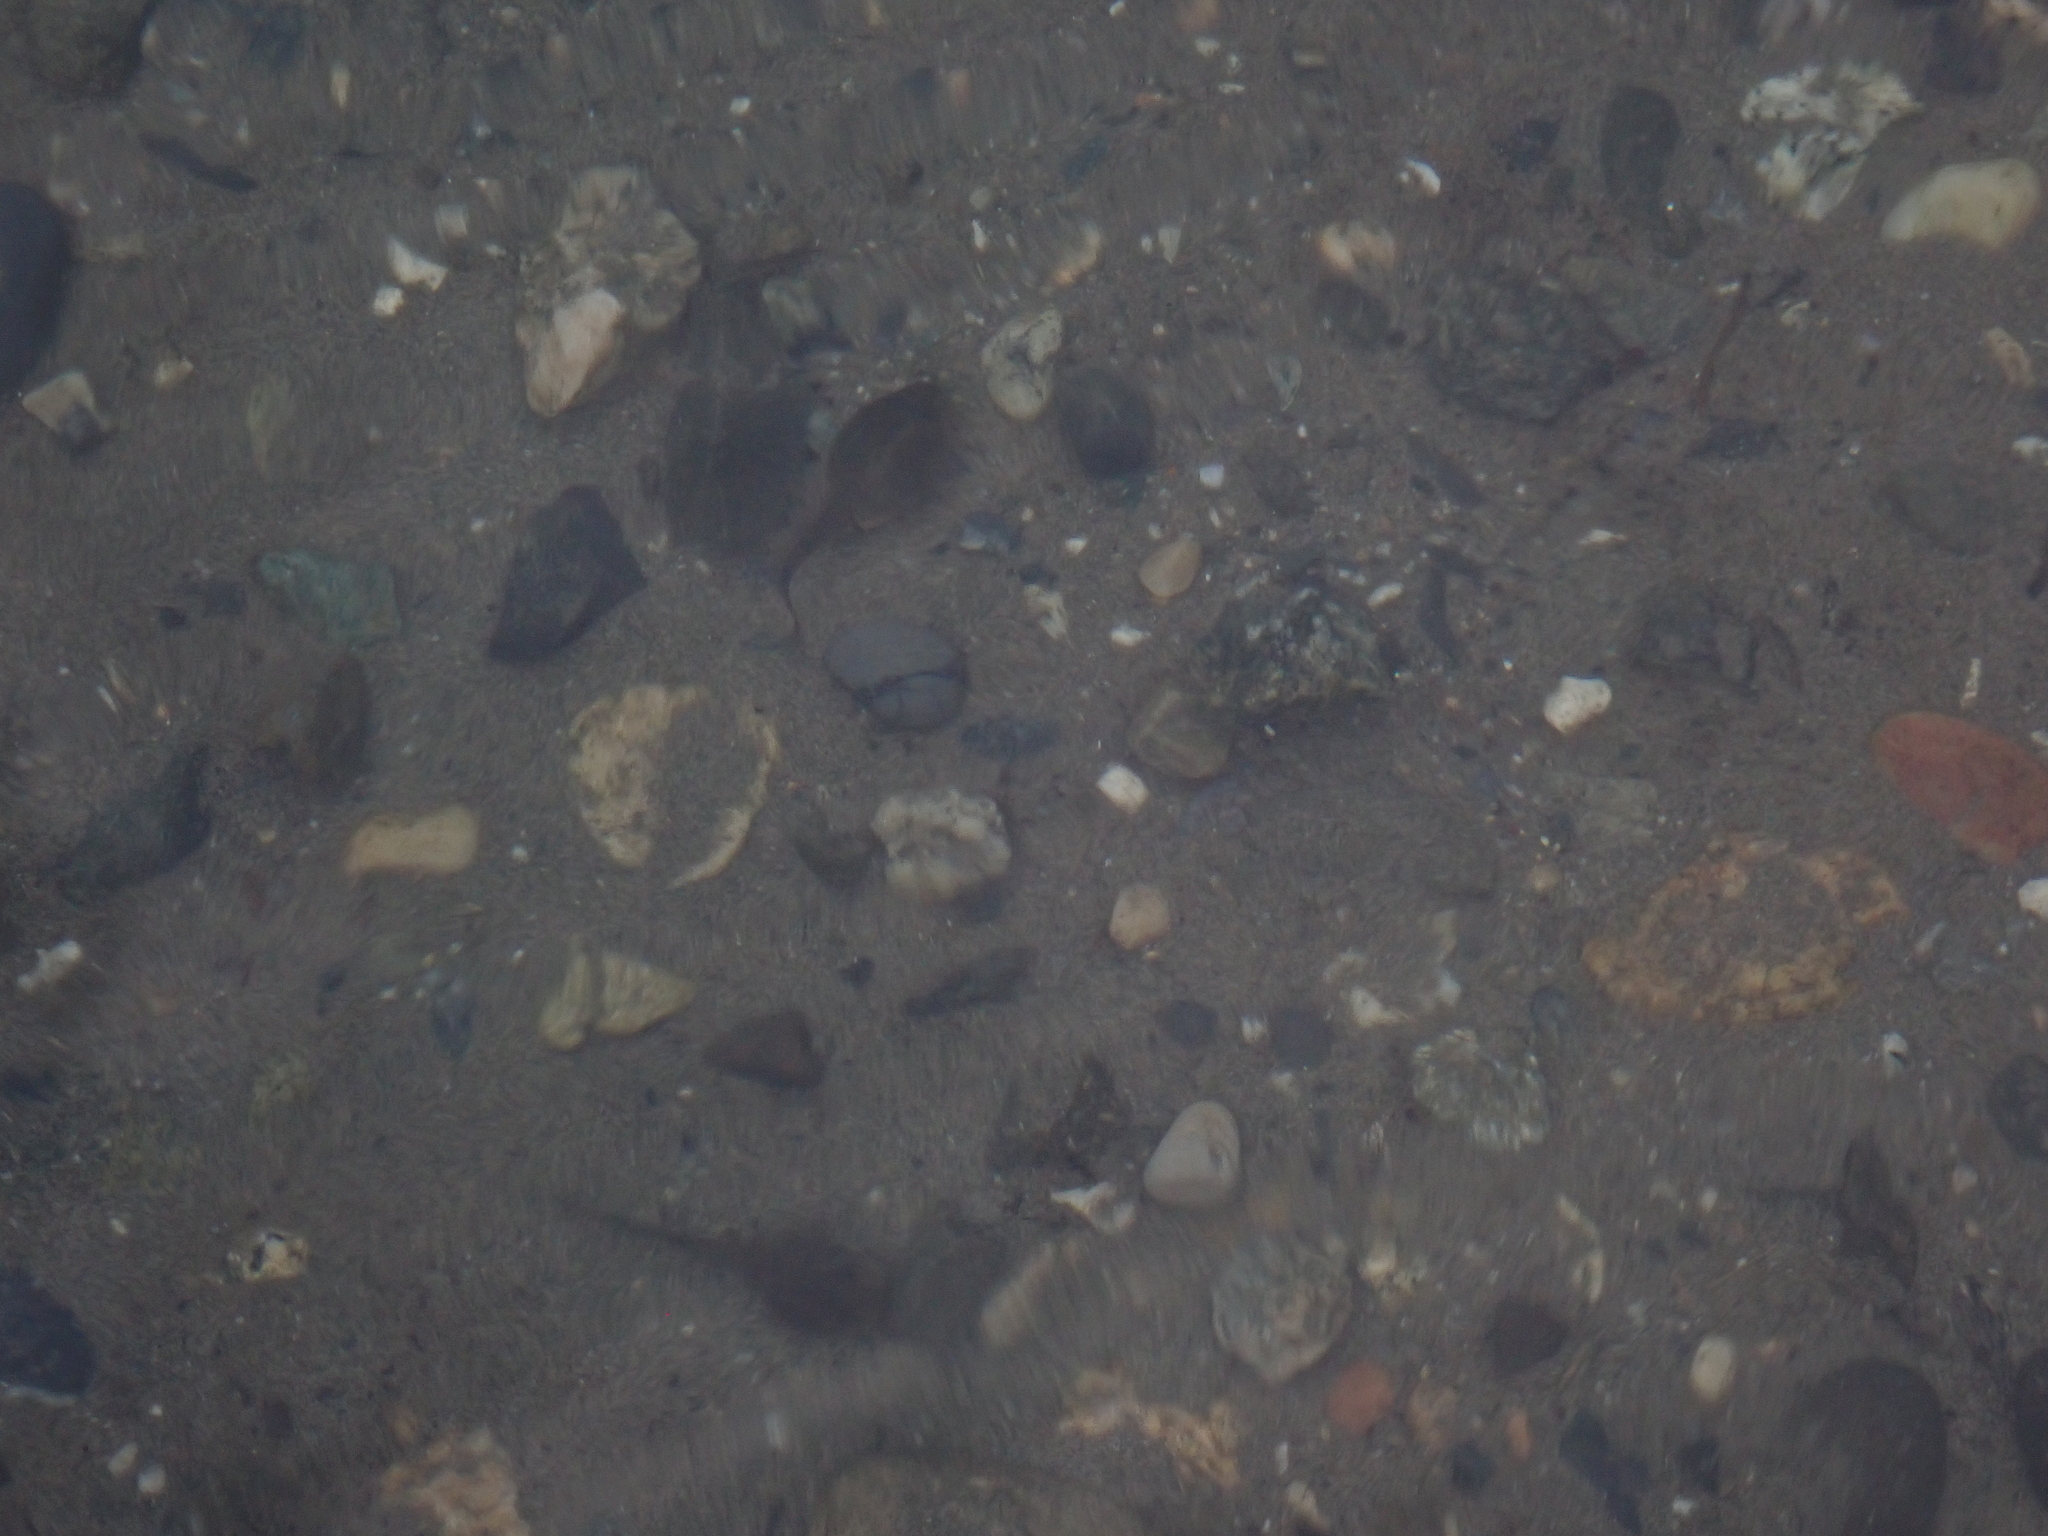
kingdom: Animalia
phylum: Chordata
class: Amphibia
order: Anura
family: Bufonidae
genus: Anaxyrus
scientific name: Anaxyrus boreas
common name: Western toad
